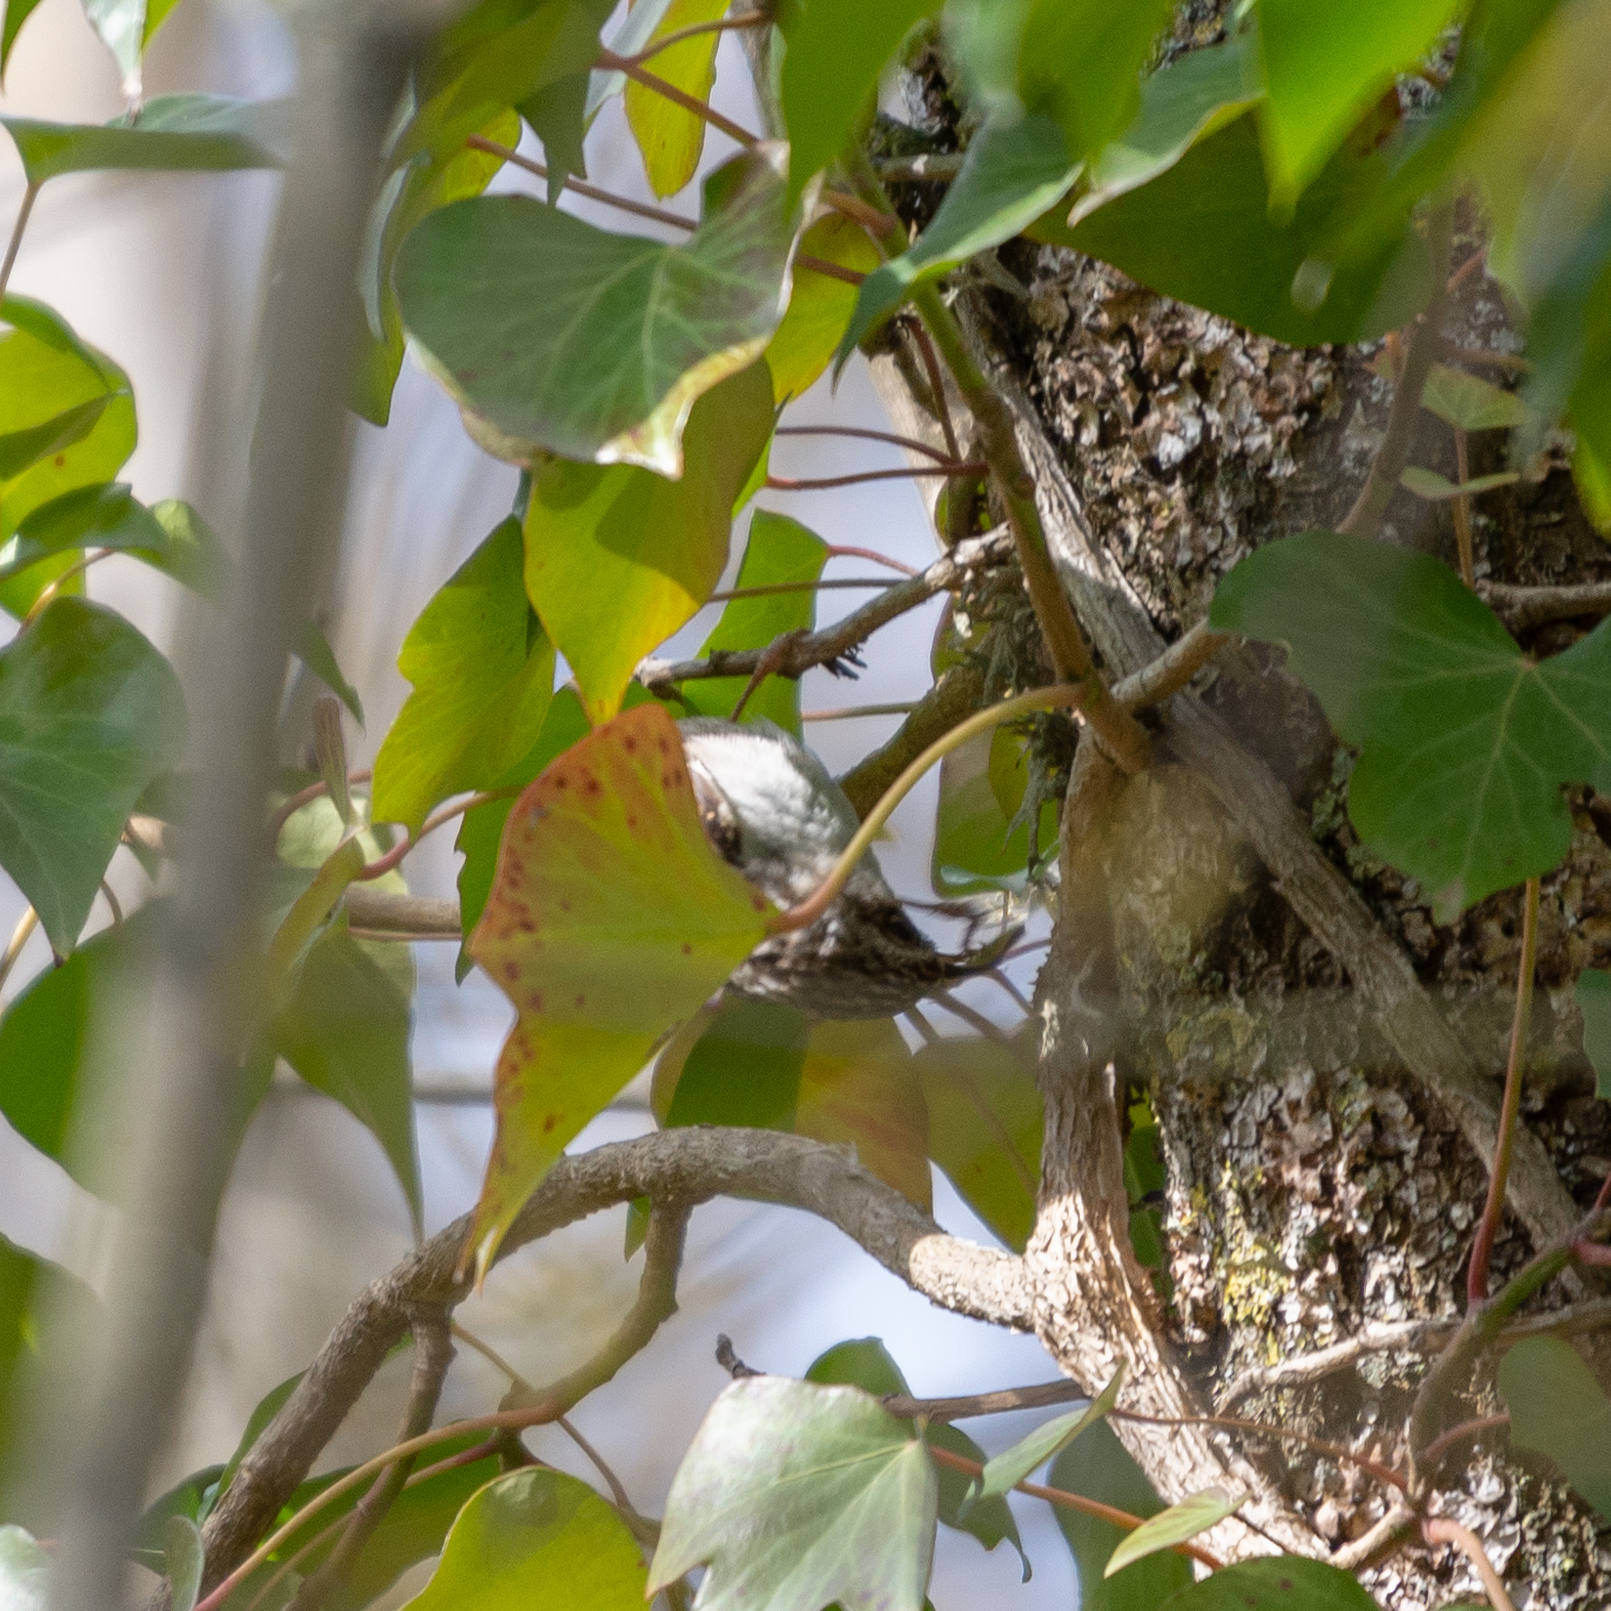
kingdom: Animalia
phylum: Chordata
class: Aves
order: Passeriformes
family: Certhiidae
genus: Certhia
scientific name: Certhia brachydactyla
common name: Short-toed treecreeper
